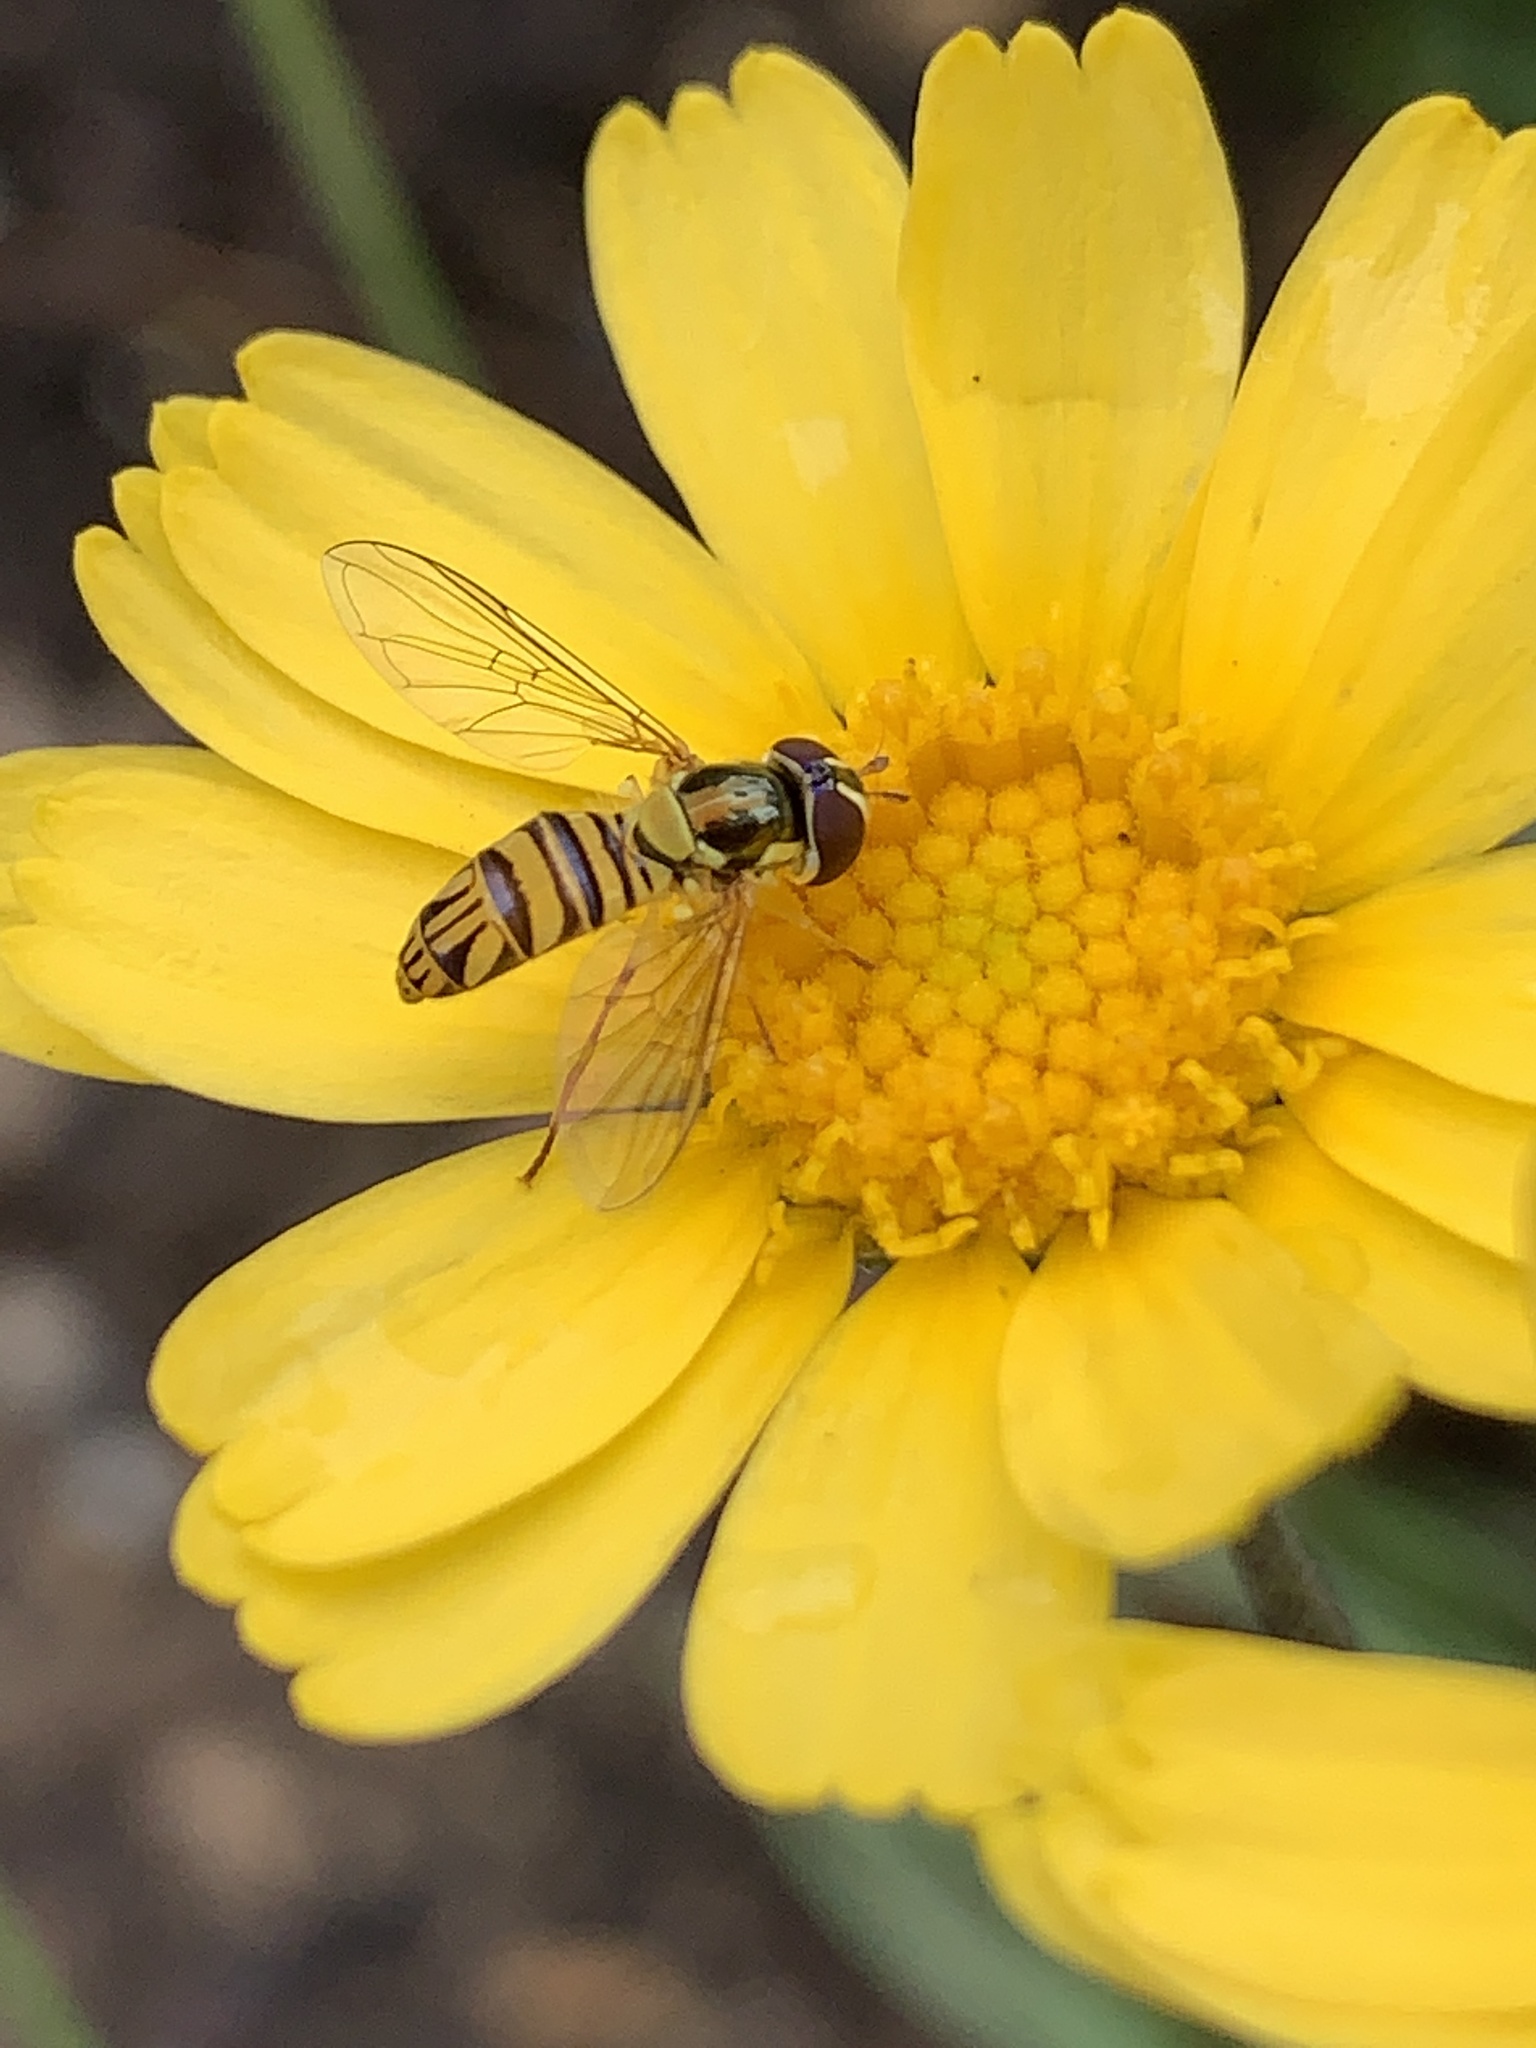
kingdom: Animalia
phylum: Arthropoda
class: Insecta
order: Diptera
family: Syrphidae
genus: Allograpta
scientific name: Allograpta obliqua
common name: Common oblique syrphid
